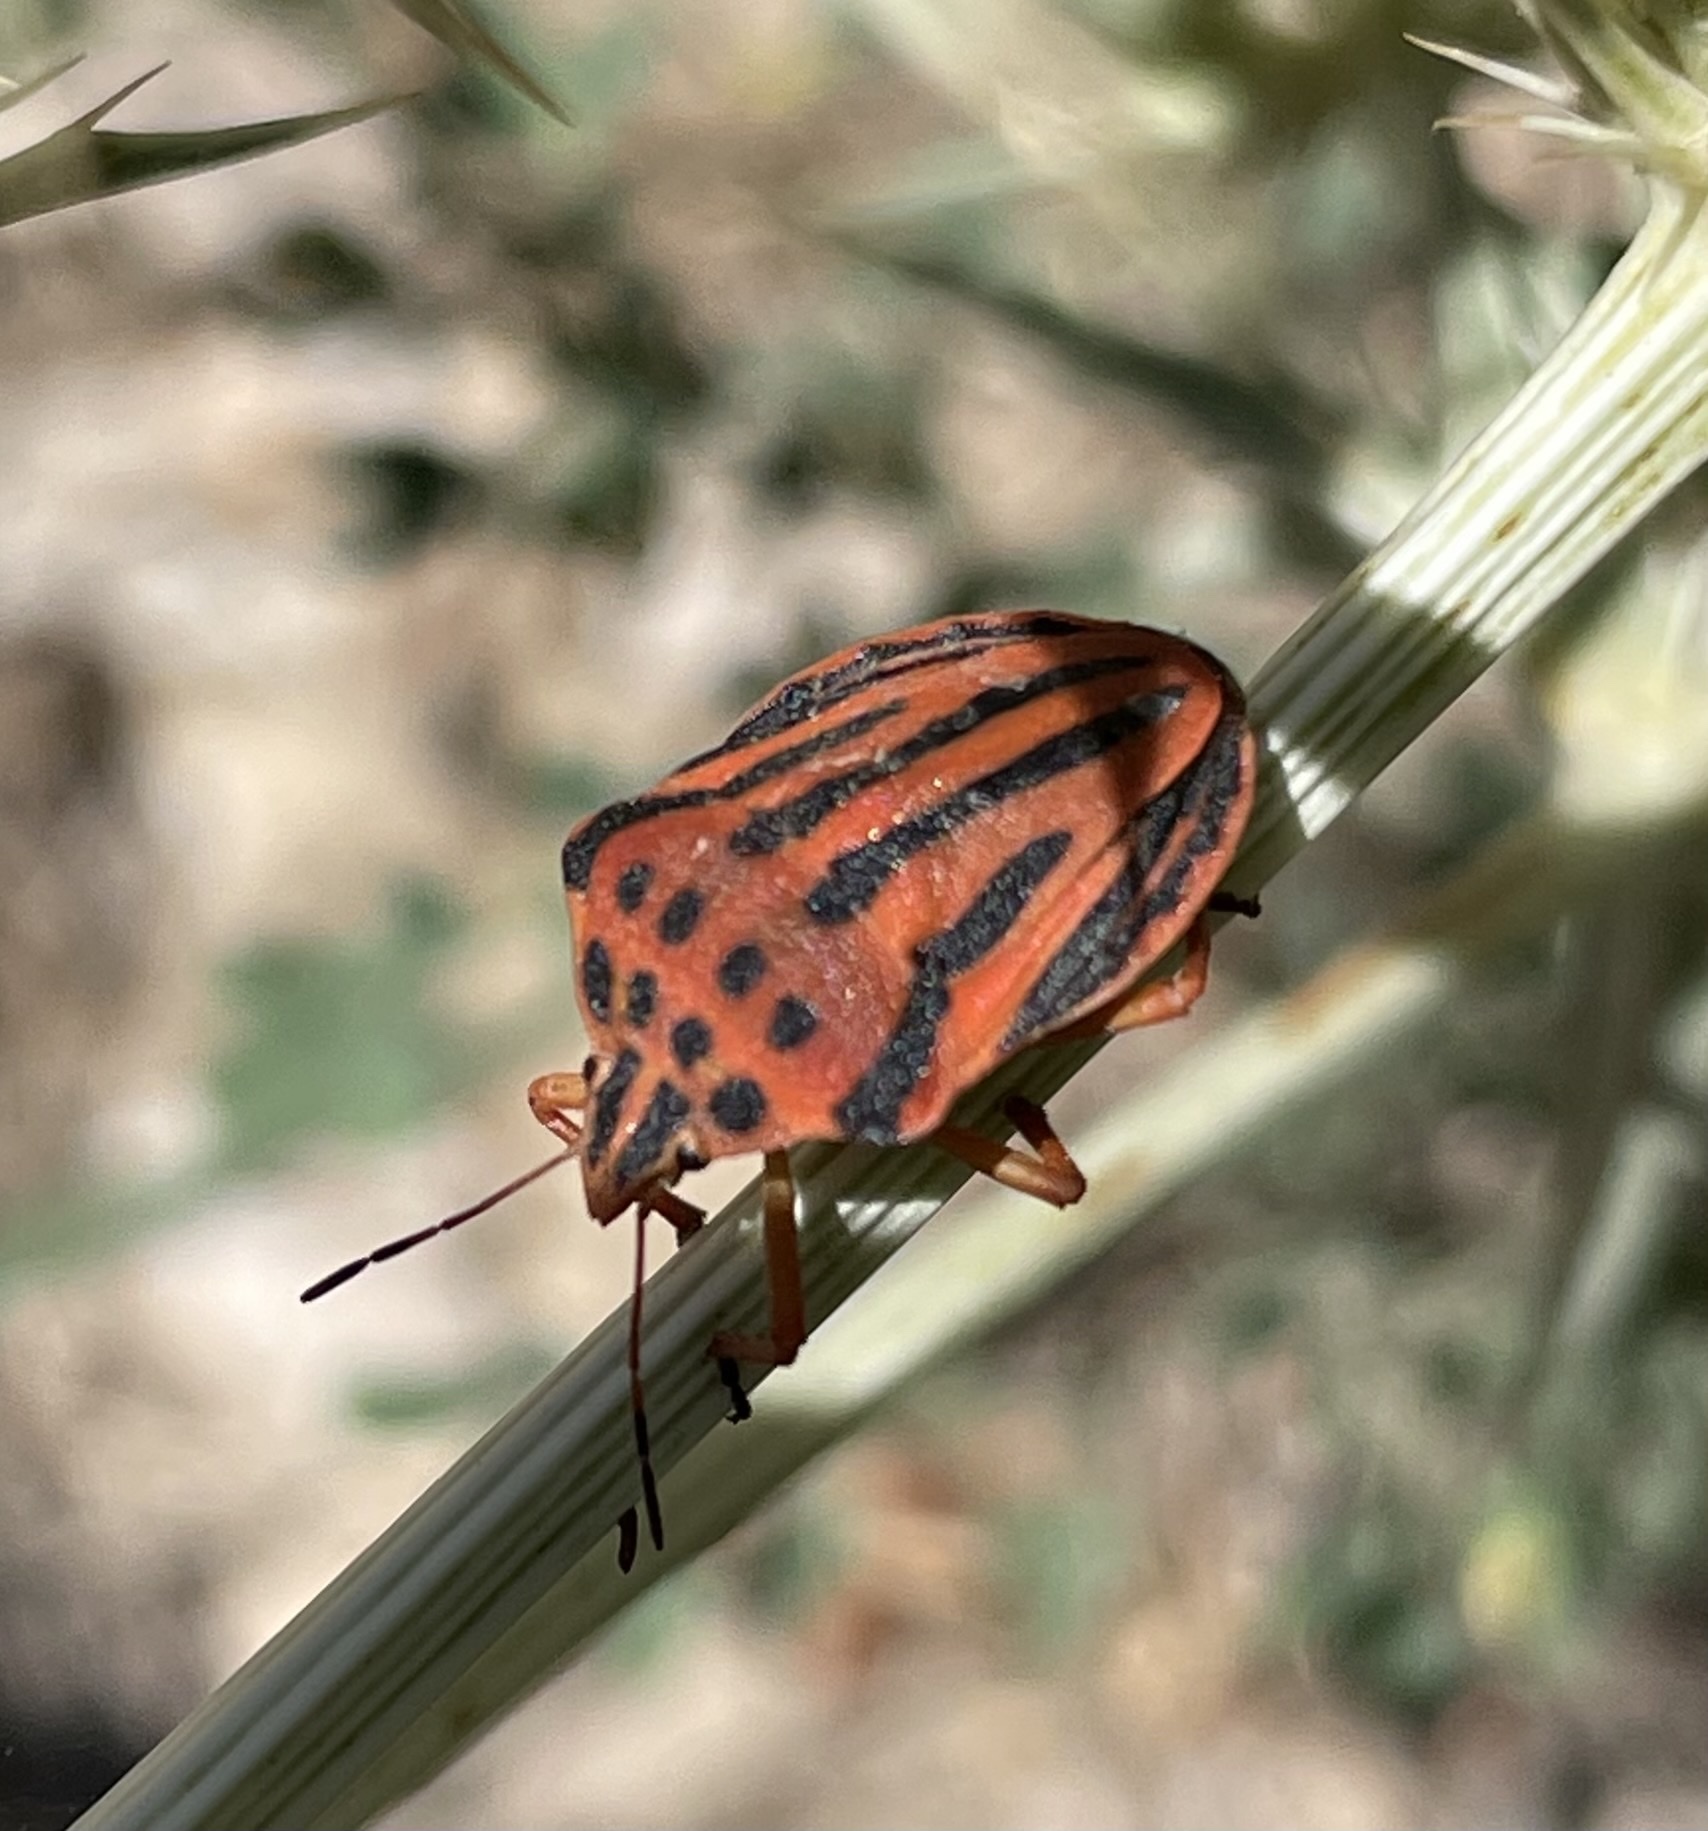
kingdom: Animalia
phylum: Arthropoda
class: Insecta
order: Hemiptera
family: Pentatomidae
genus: Graphosoma
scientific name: Graphosoma semipunctatum
